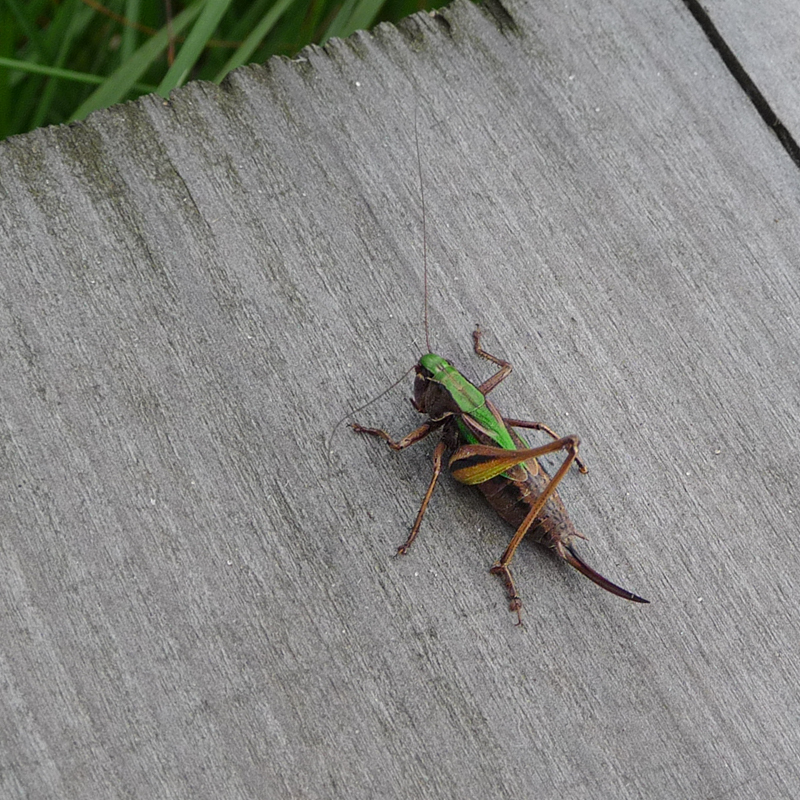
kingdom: Animalia
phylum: Arthropoda
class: Insecta
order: Orthoptera
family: Tettigoniidae
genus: Metrioptera
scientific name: Metrioptera brachyptera
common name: Bog bush-cricket
